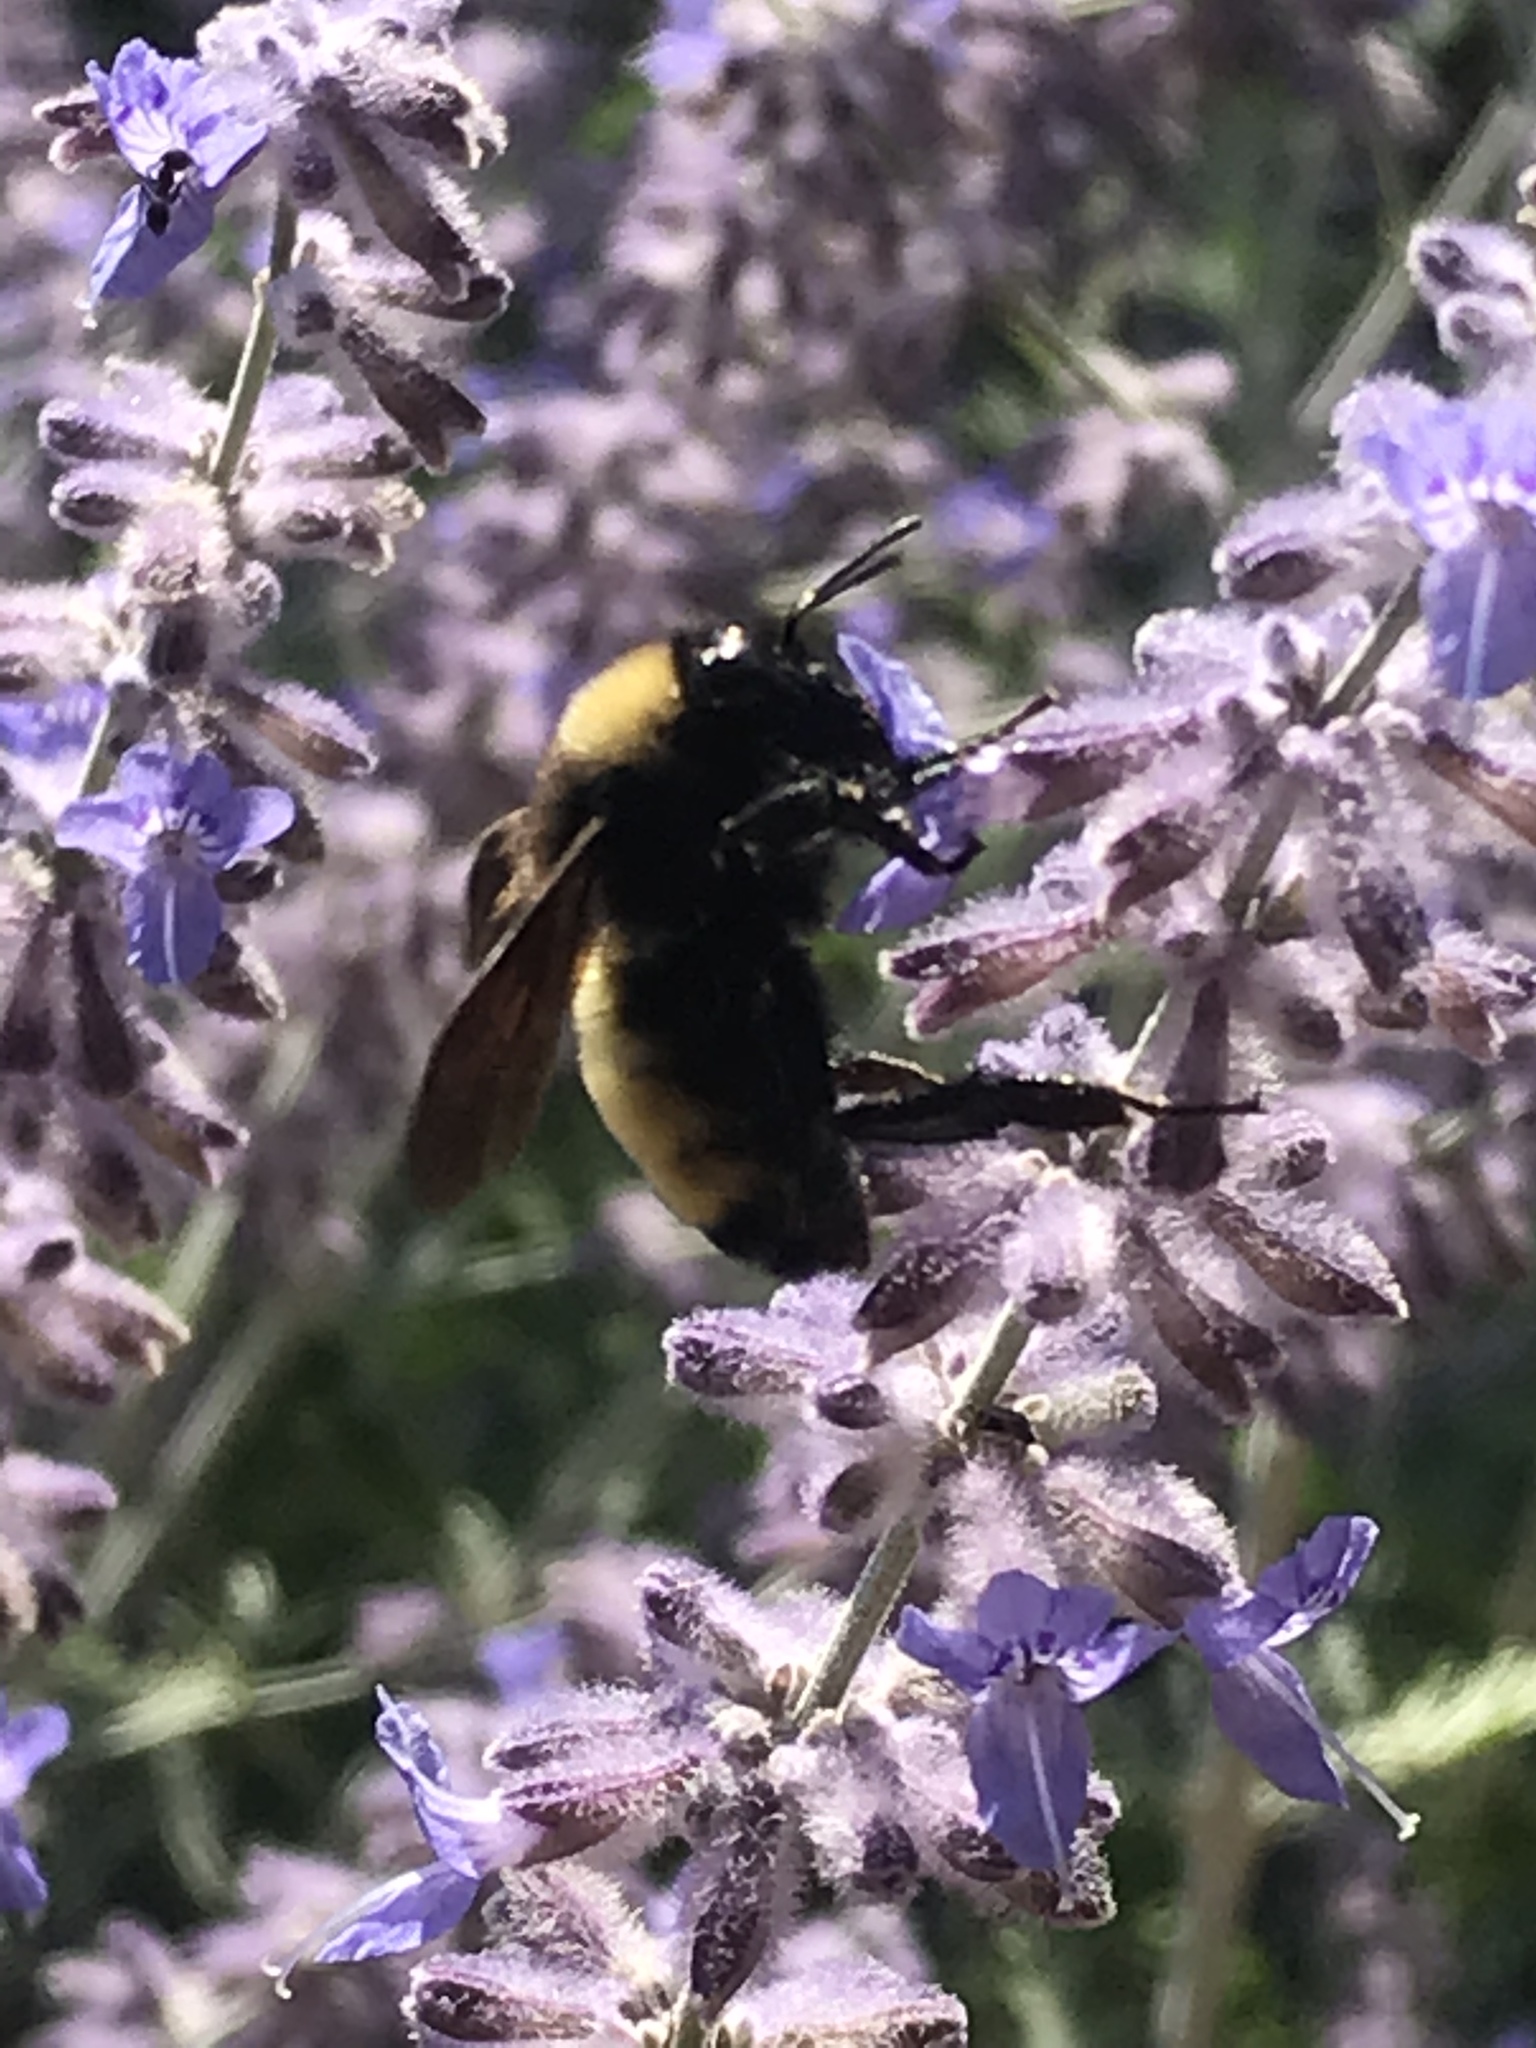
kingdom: Animalia
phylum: Arthropoda
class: Insecta
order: Hymenoptera
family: Apidae
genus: Bombus
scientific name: Bombus pensylvanicus
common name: Bumble bee
